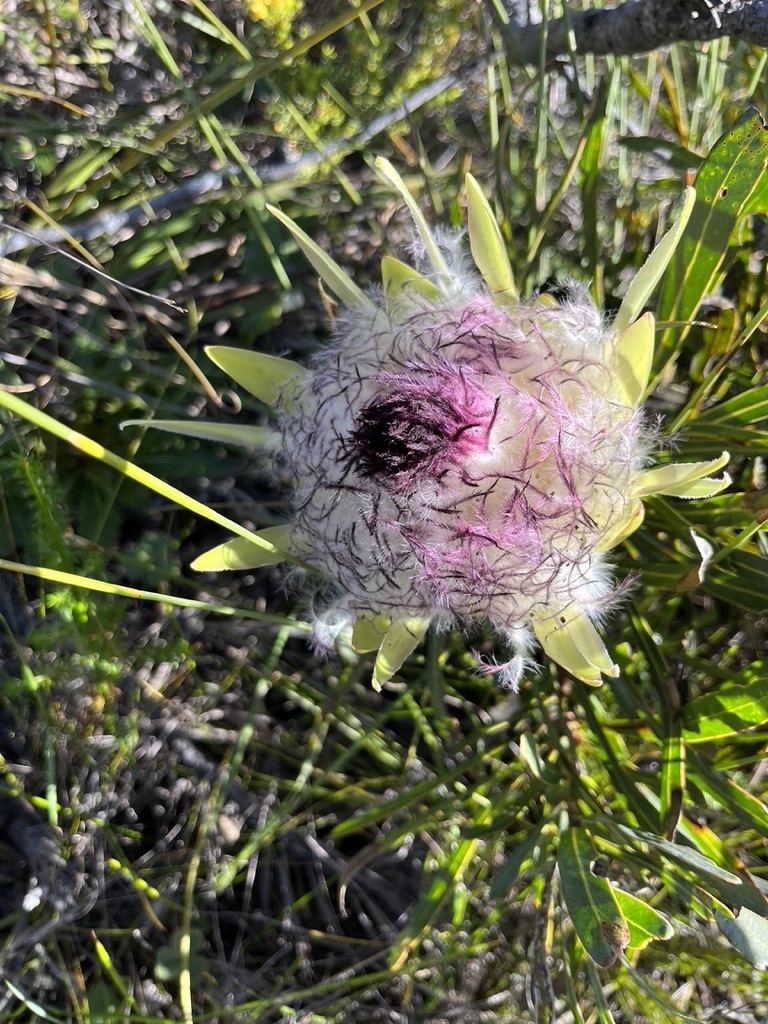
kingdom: Plantae
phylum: Tracheophyta
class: Magnoliopsida
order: Proteales
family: Proteaceae
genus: Protea
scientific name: Protea longifolia
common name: Long-leaf sugarbush
